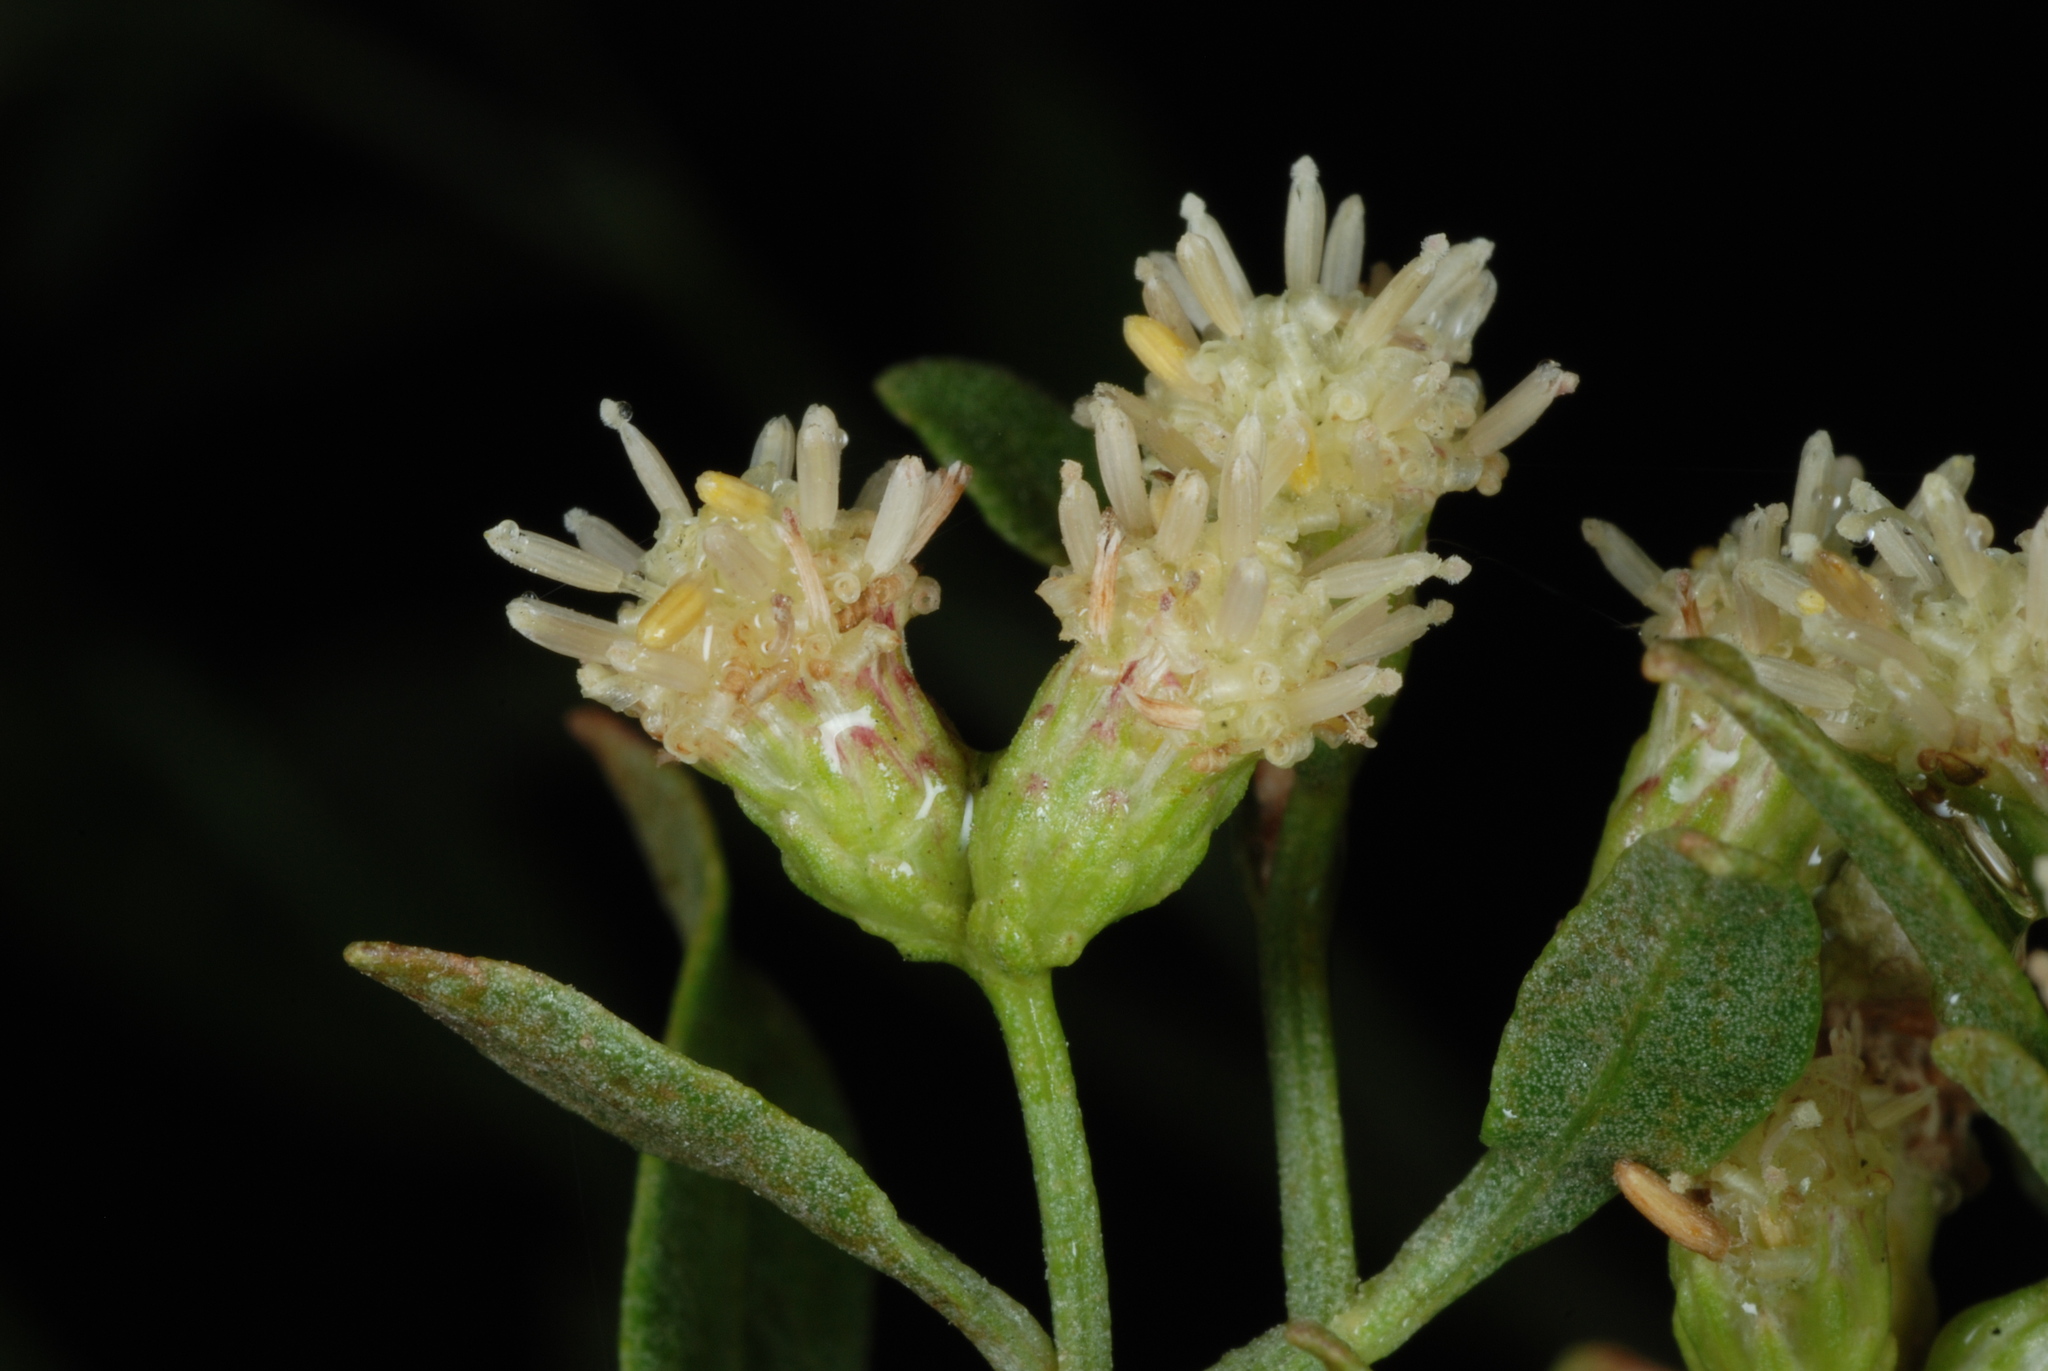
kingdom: Plantae
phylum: Tracheophyta
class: Magnoliopsida
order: Asterales
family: Asteraceae
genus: Baccharis
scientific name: Baccharis halimifolia
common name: Eastern baccharis
